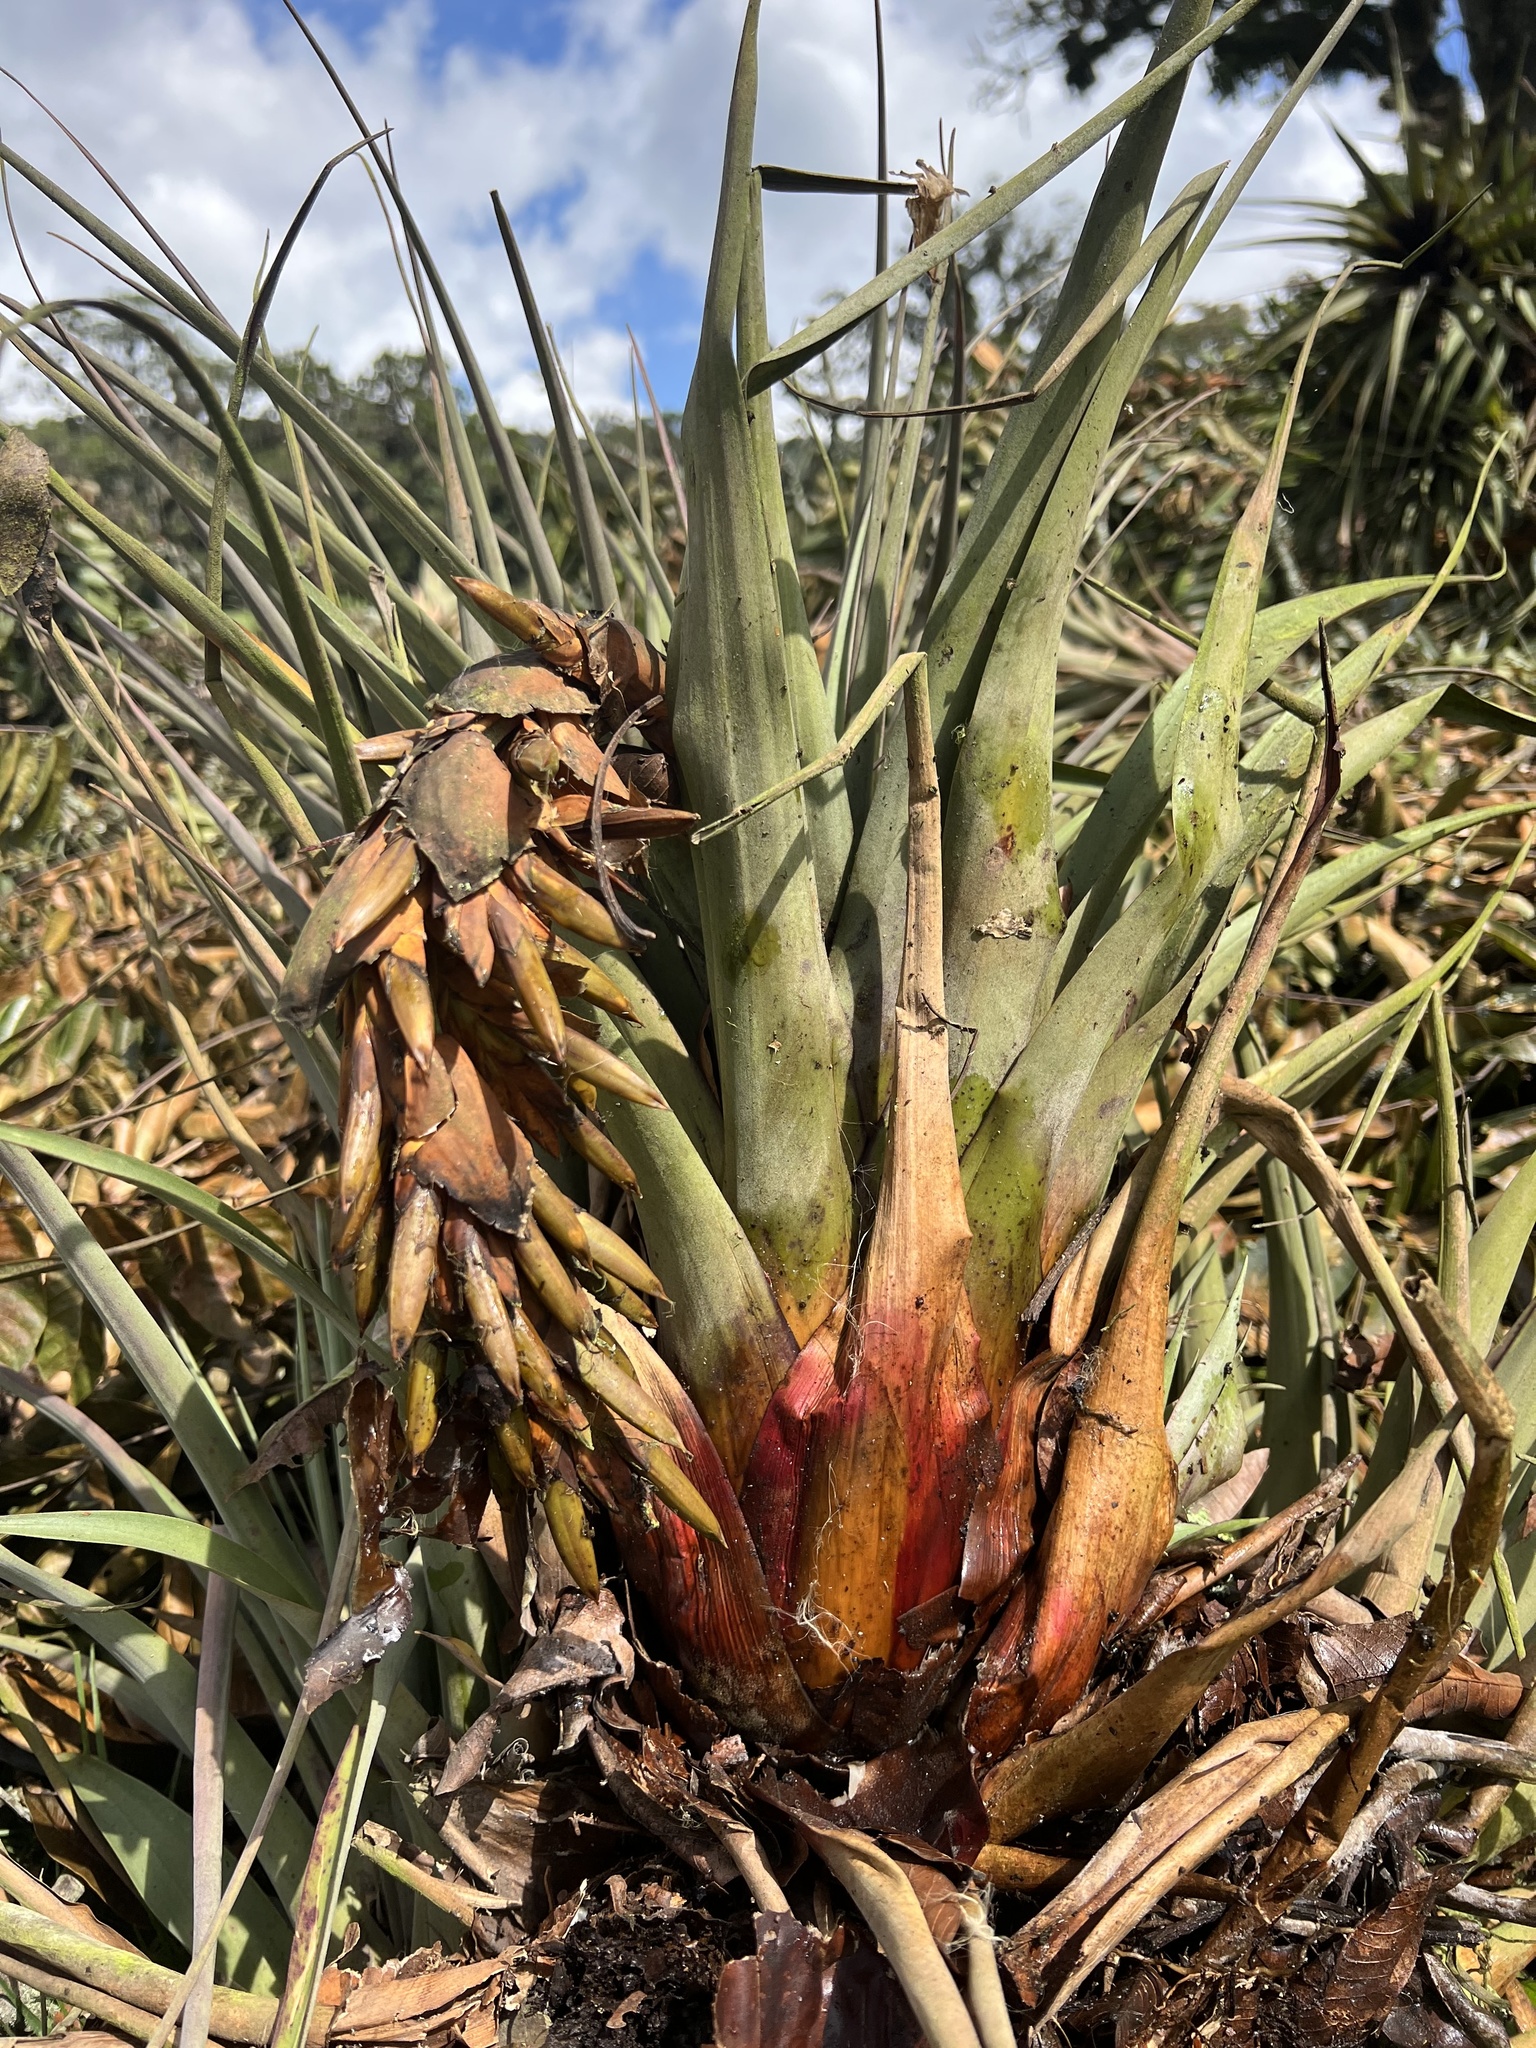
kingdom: Plantae
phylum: Tracheophyta
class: Liliopsida
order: Poales
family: Bromeliaceae
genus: Vriesea
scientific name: Vriesea tequendamae
